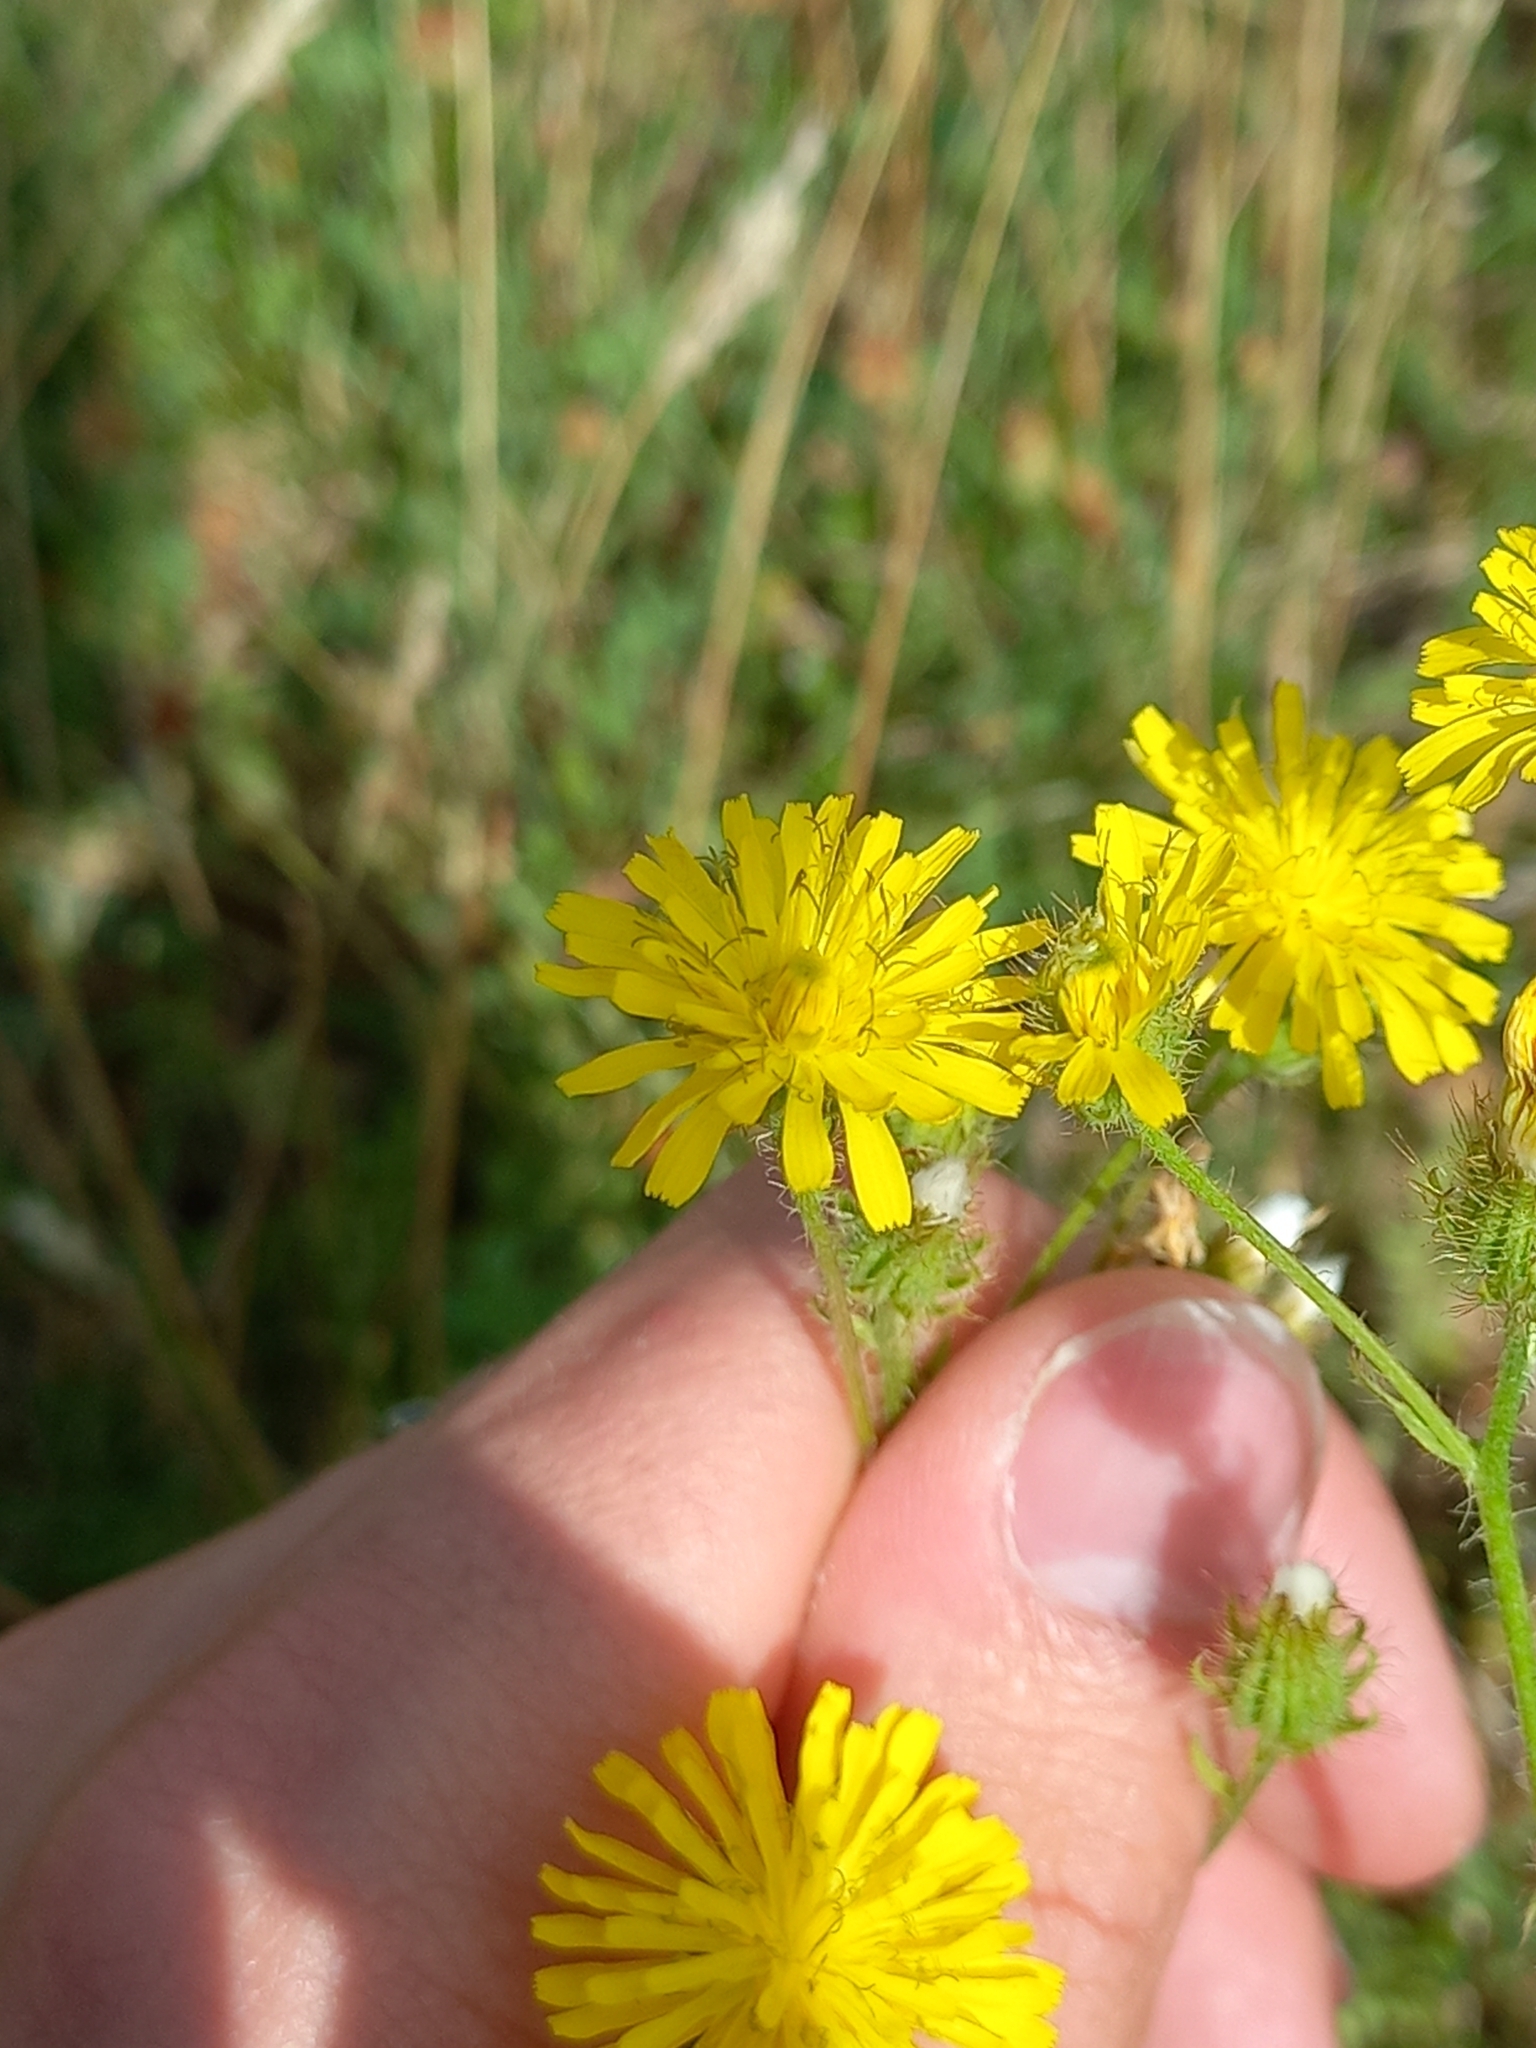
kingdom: Plantae
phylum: Tracheophyta
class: Magnoliopsida
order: Asterales
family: Asteraceae
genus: Crepis
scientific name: Crepis setosa
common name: Bristly hawk's-beard
